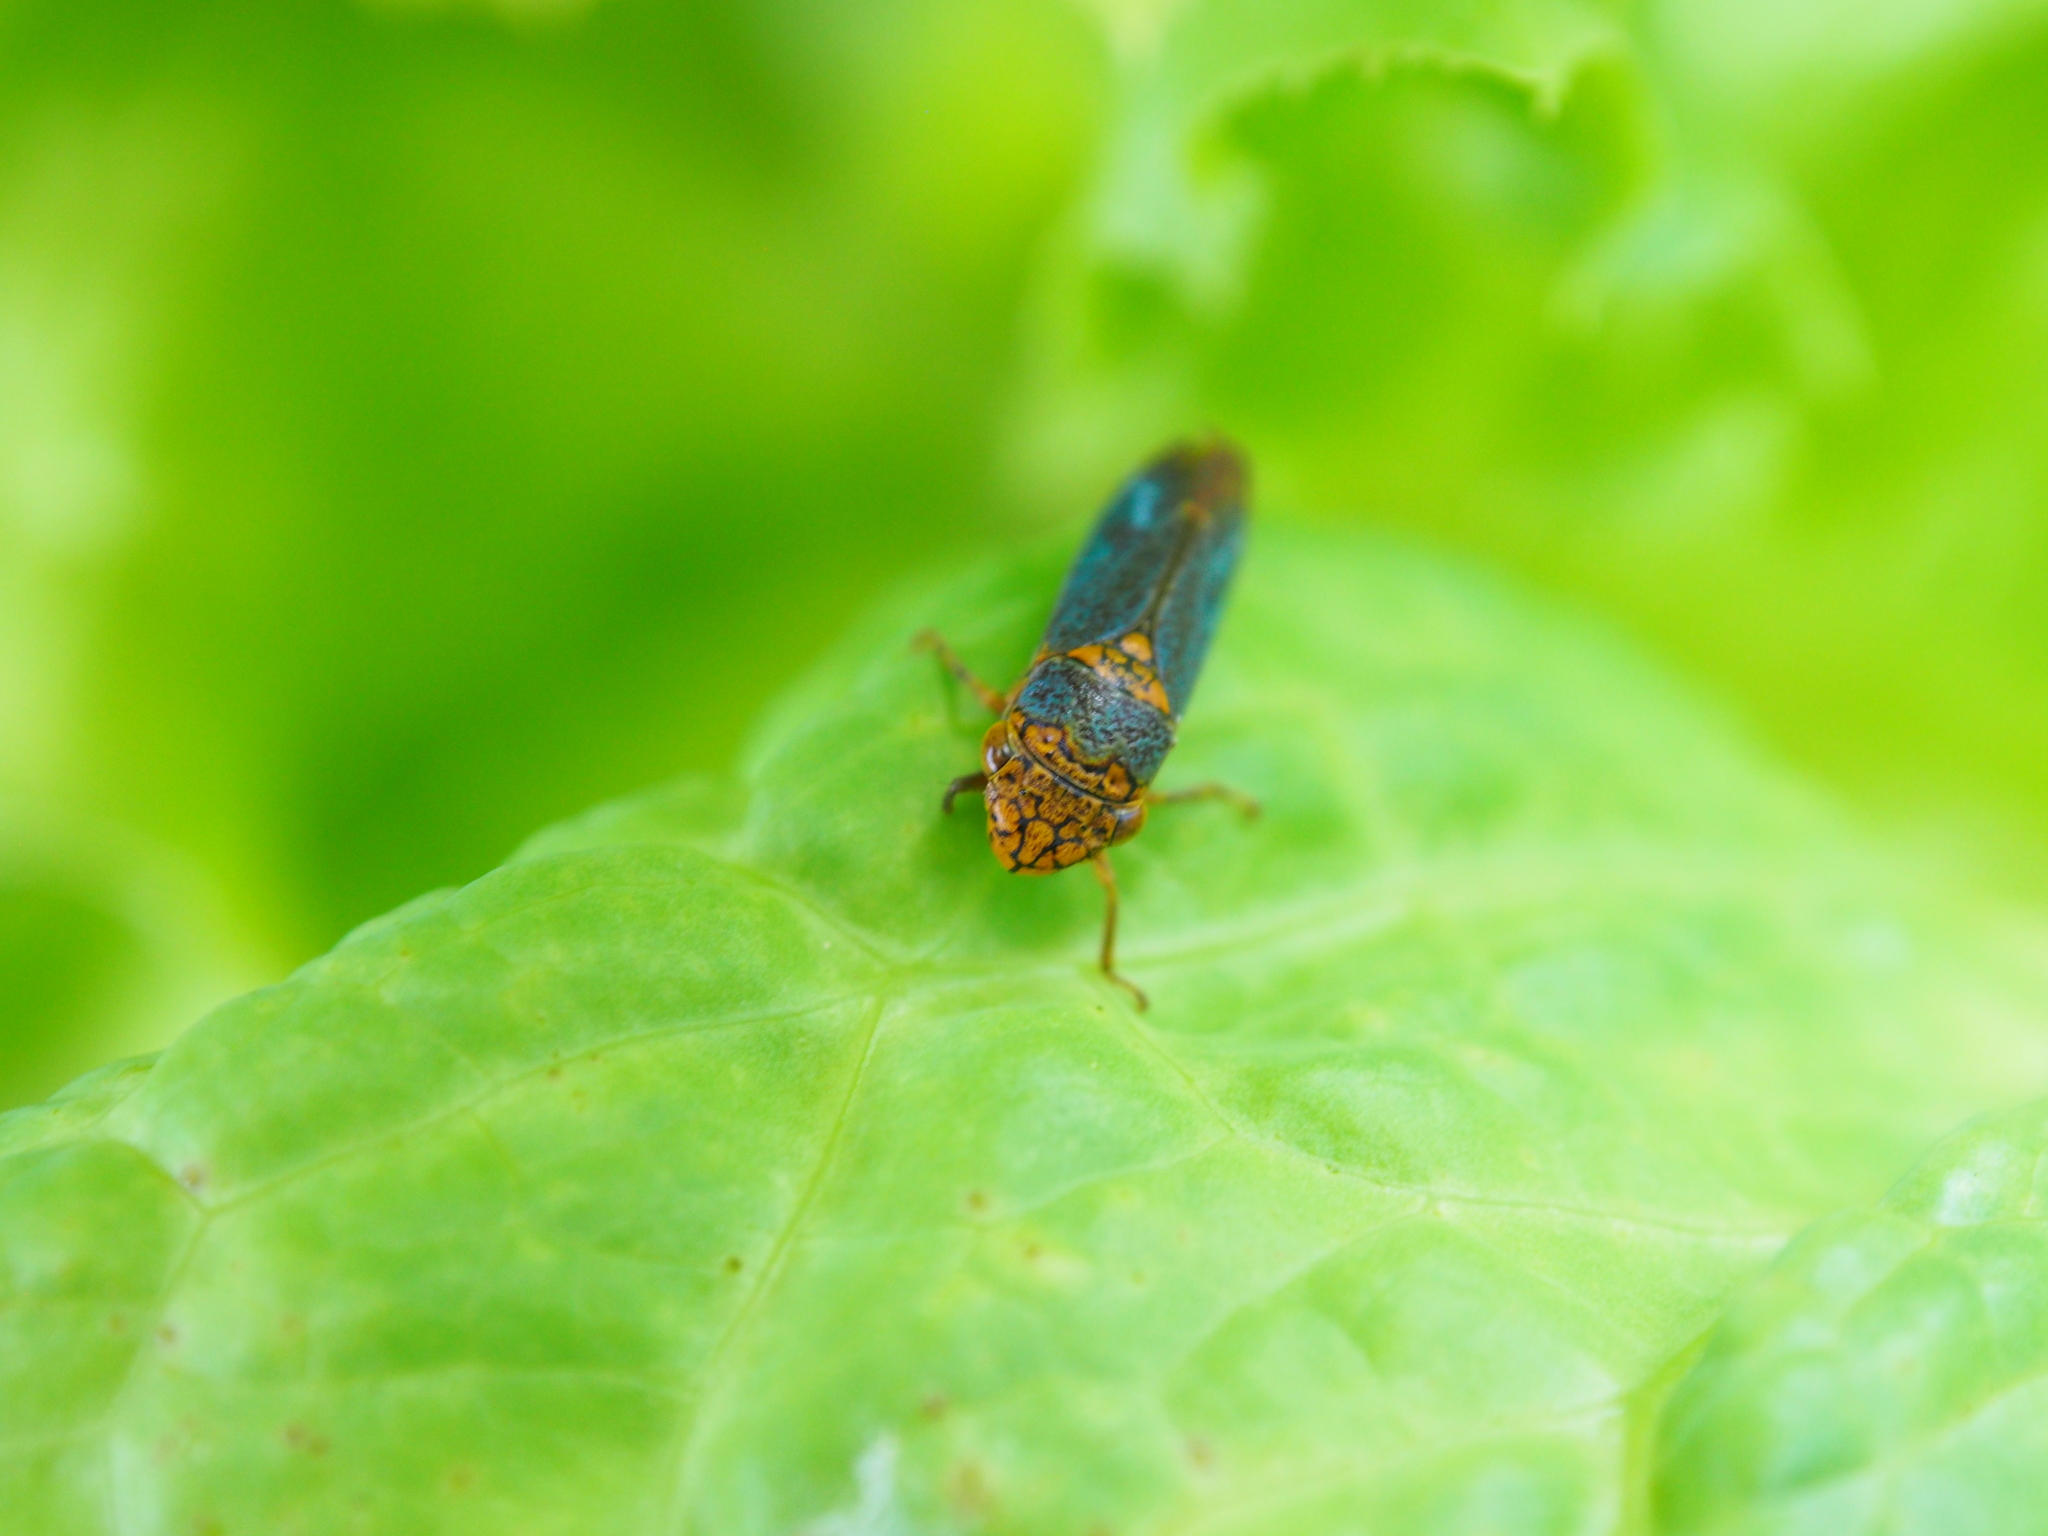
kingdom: Animalia
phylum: Arthropoda
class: Insecta
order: Hemiptera
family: Cicadellidae
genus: Oncometopia
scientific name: Oncometopia orbona
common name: Broad-headed sharpshooter
